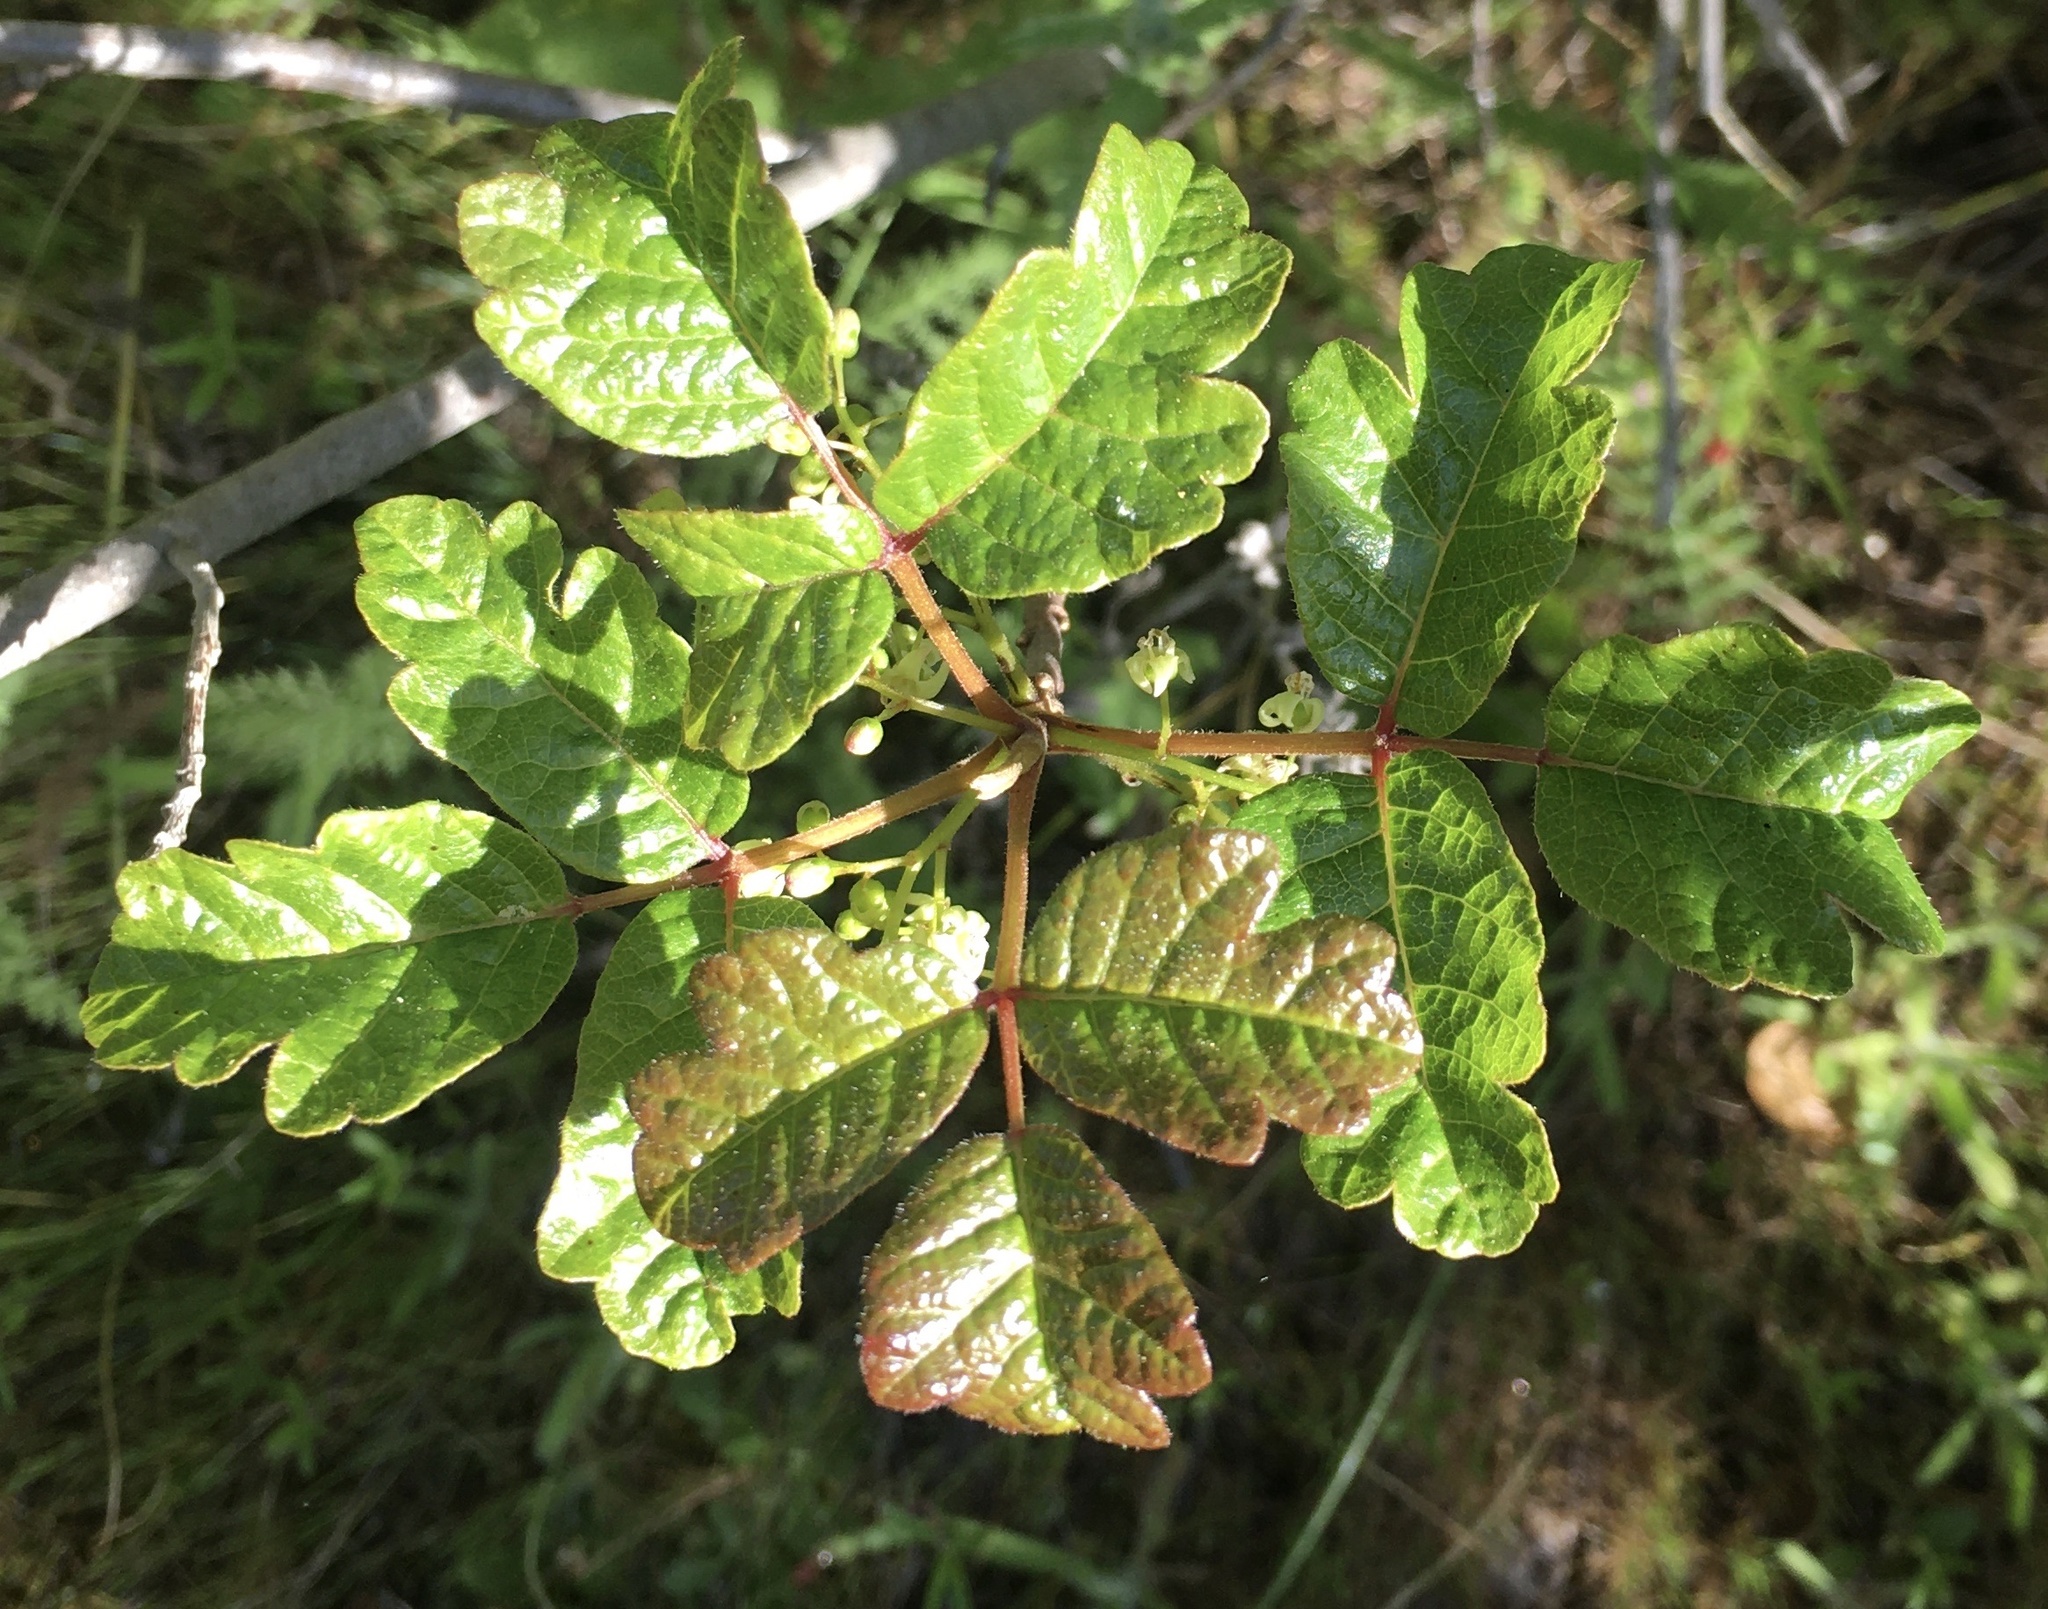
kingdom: Plantae
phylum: Tracheophyta
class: Magnoliopsida
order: Sapindales
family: Anacardiaceae
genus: Toxicodendron
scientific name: Toxicodendron diversilobum
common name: Pacific poison-oak
